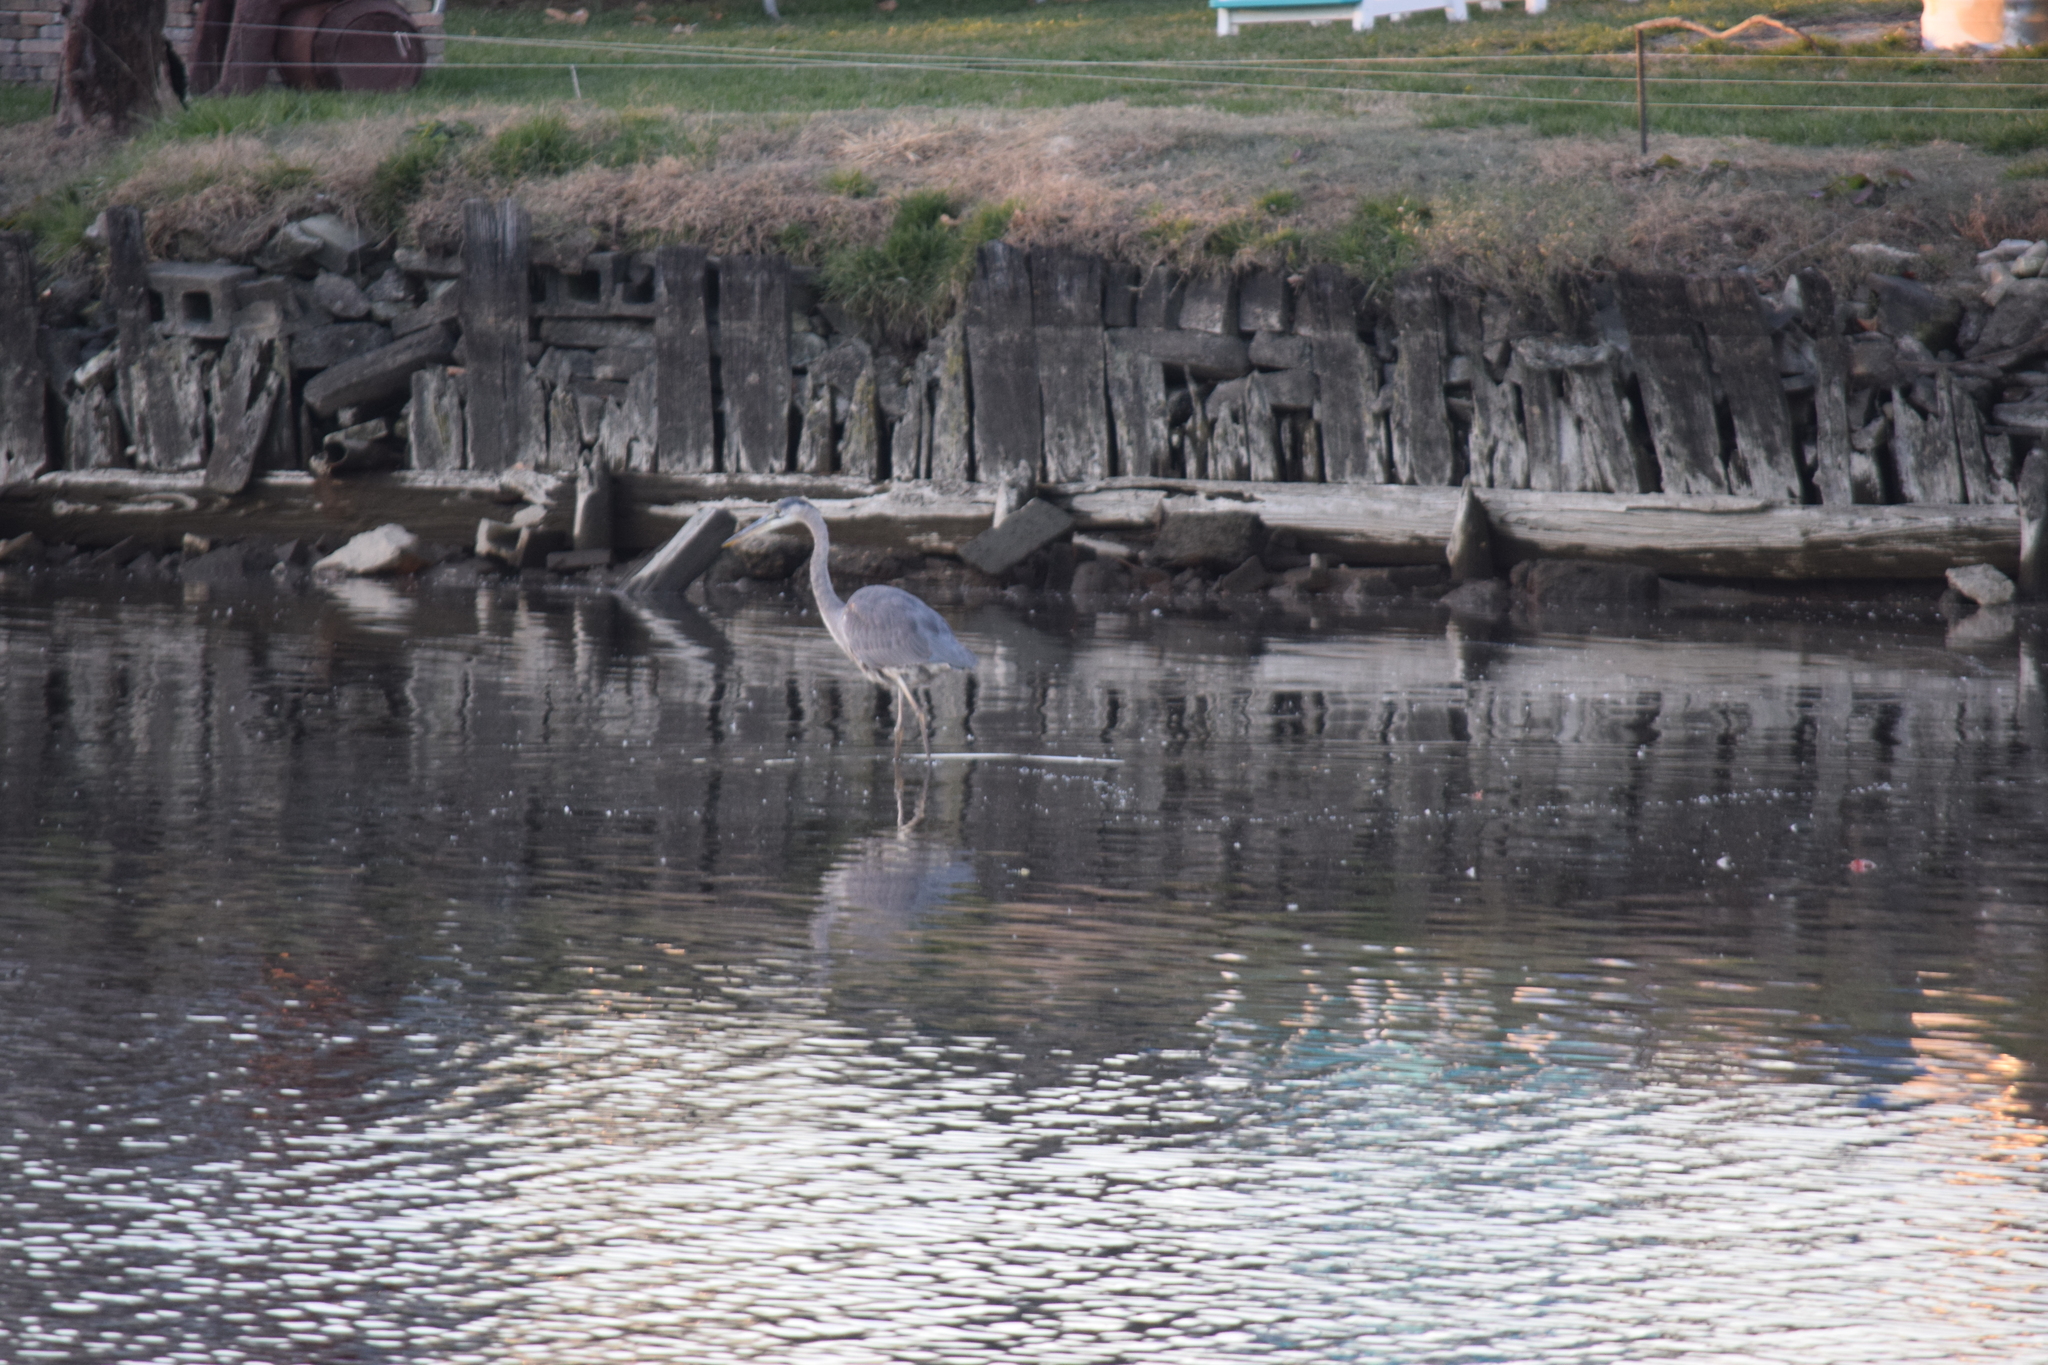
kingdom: Animalia
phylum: Chordata
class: Aves
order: Pelecaniformes
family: Ardeidae
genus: Ardea
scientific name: Ardea herodias
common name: Great blue heron
